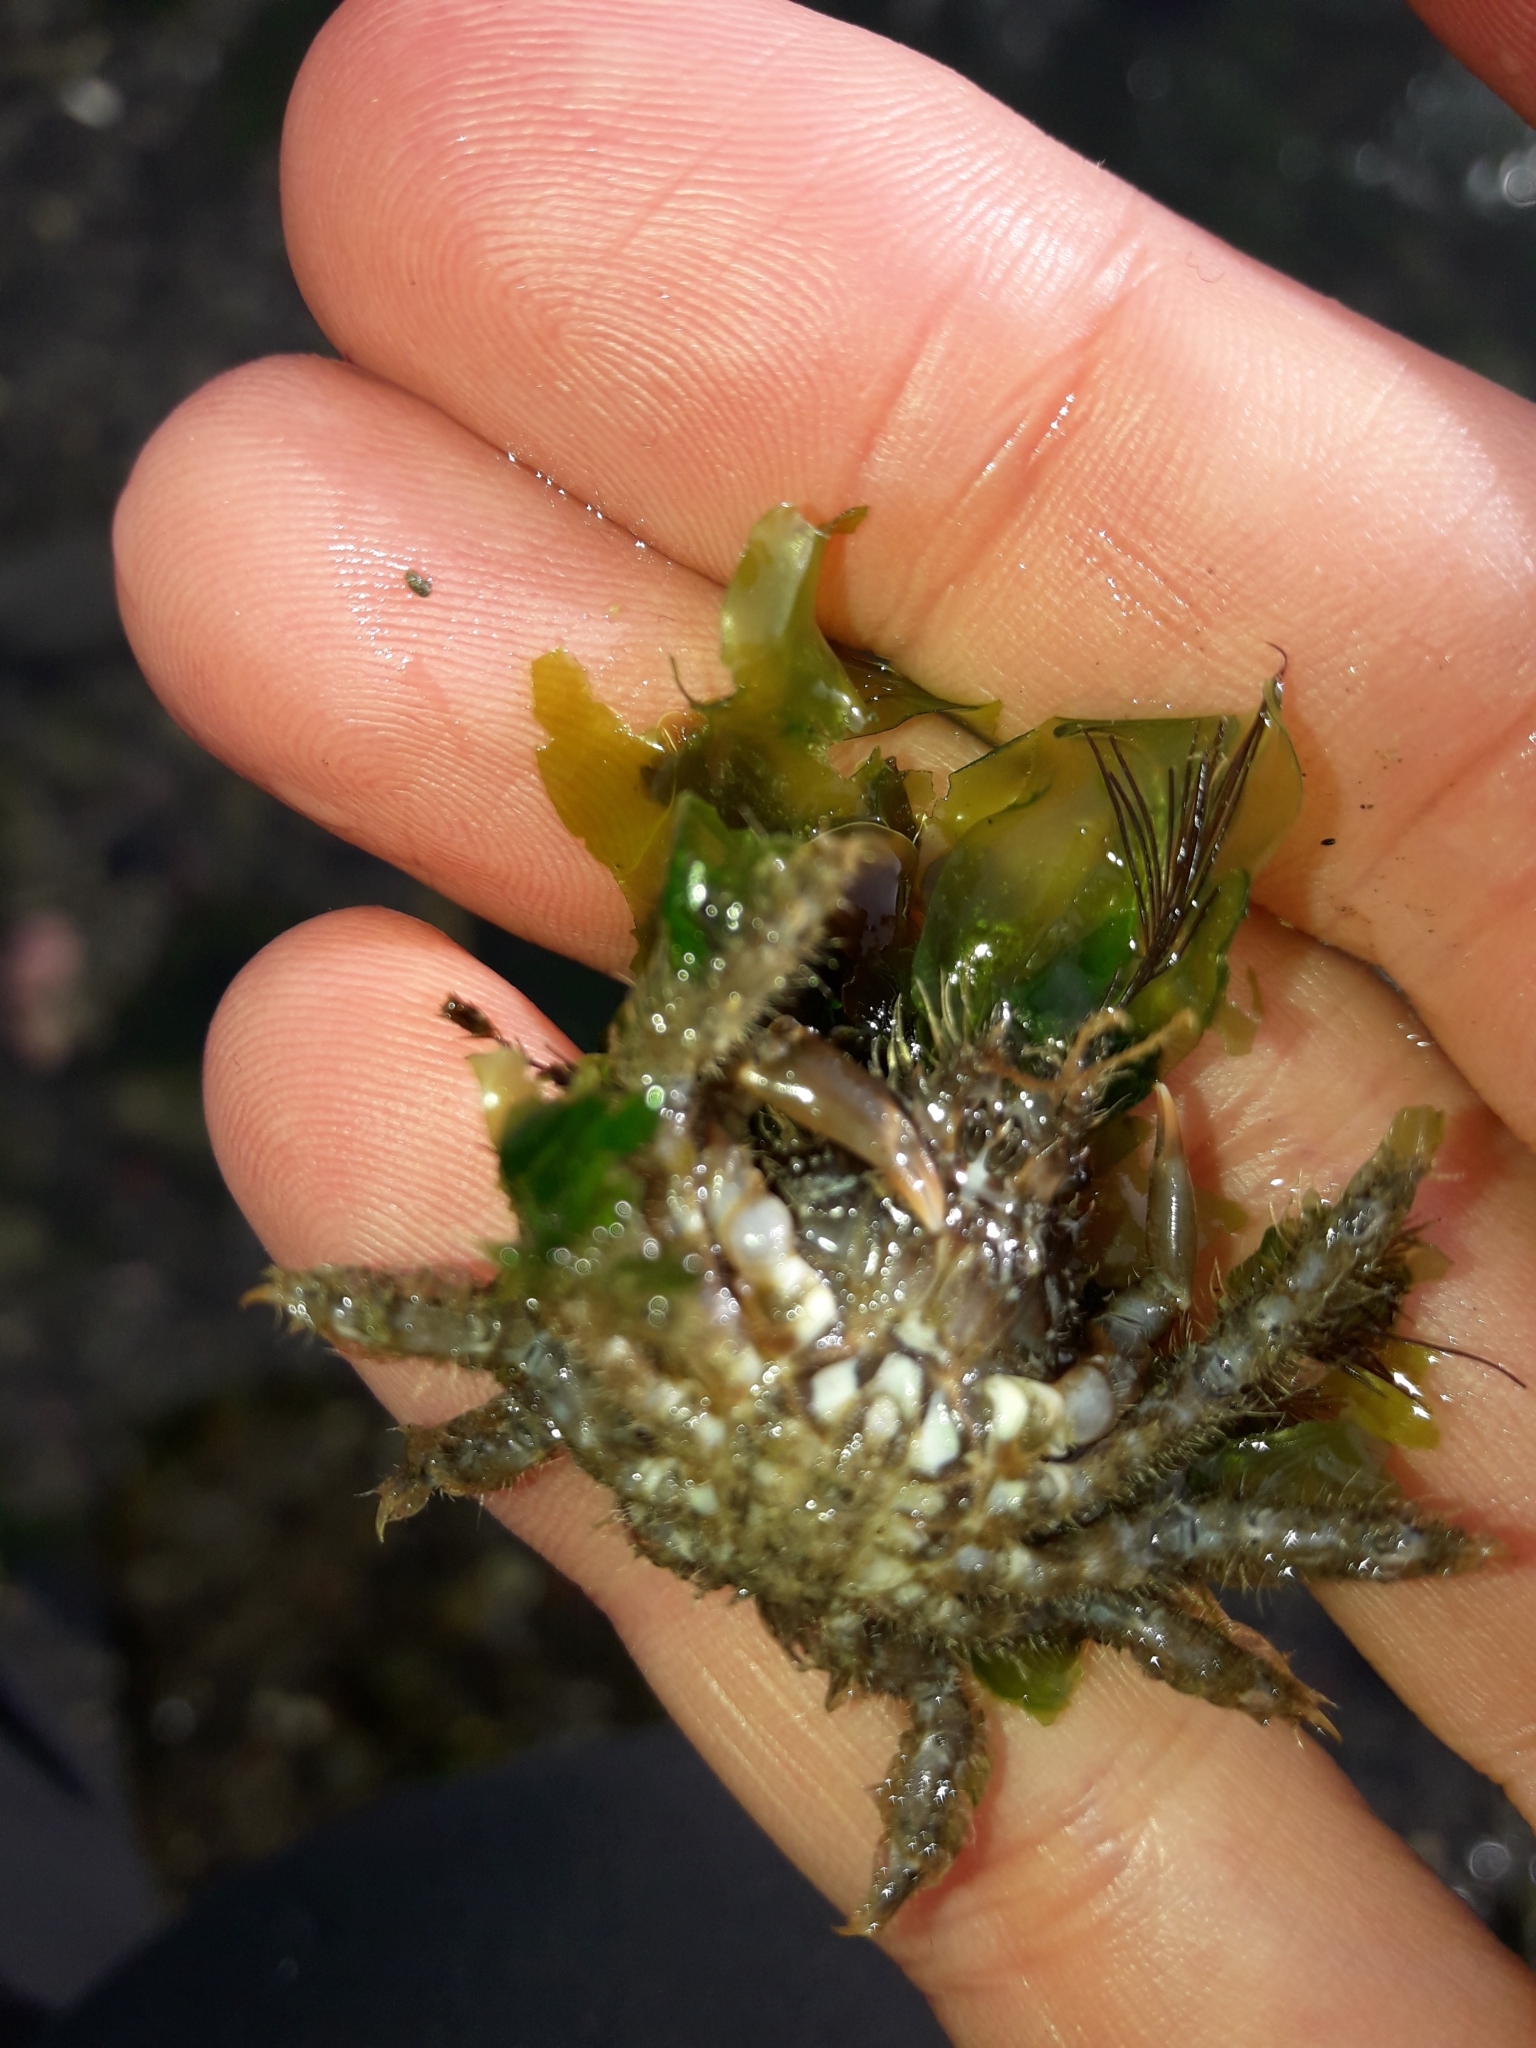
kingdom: Animalia
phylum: Arthropoda
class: Malacostraca
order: Decapoda
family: Majidae
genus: Notomithrax
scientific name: Notomithrax peronii
